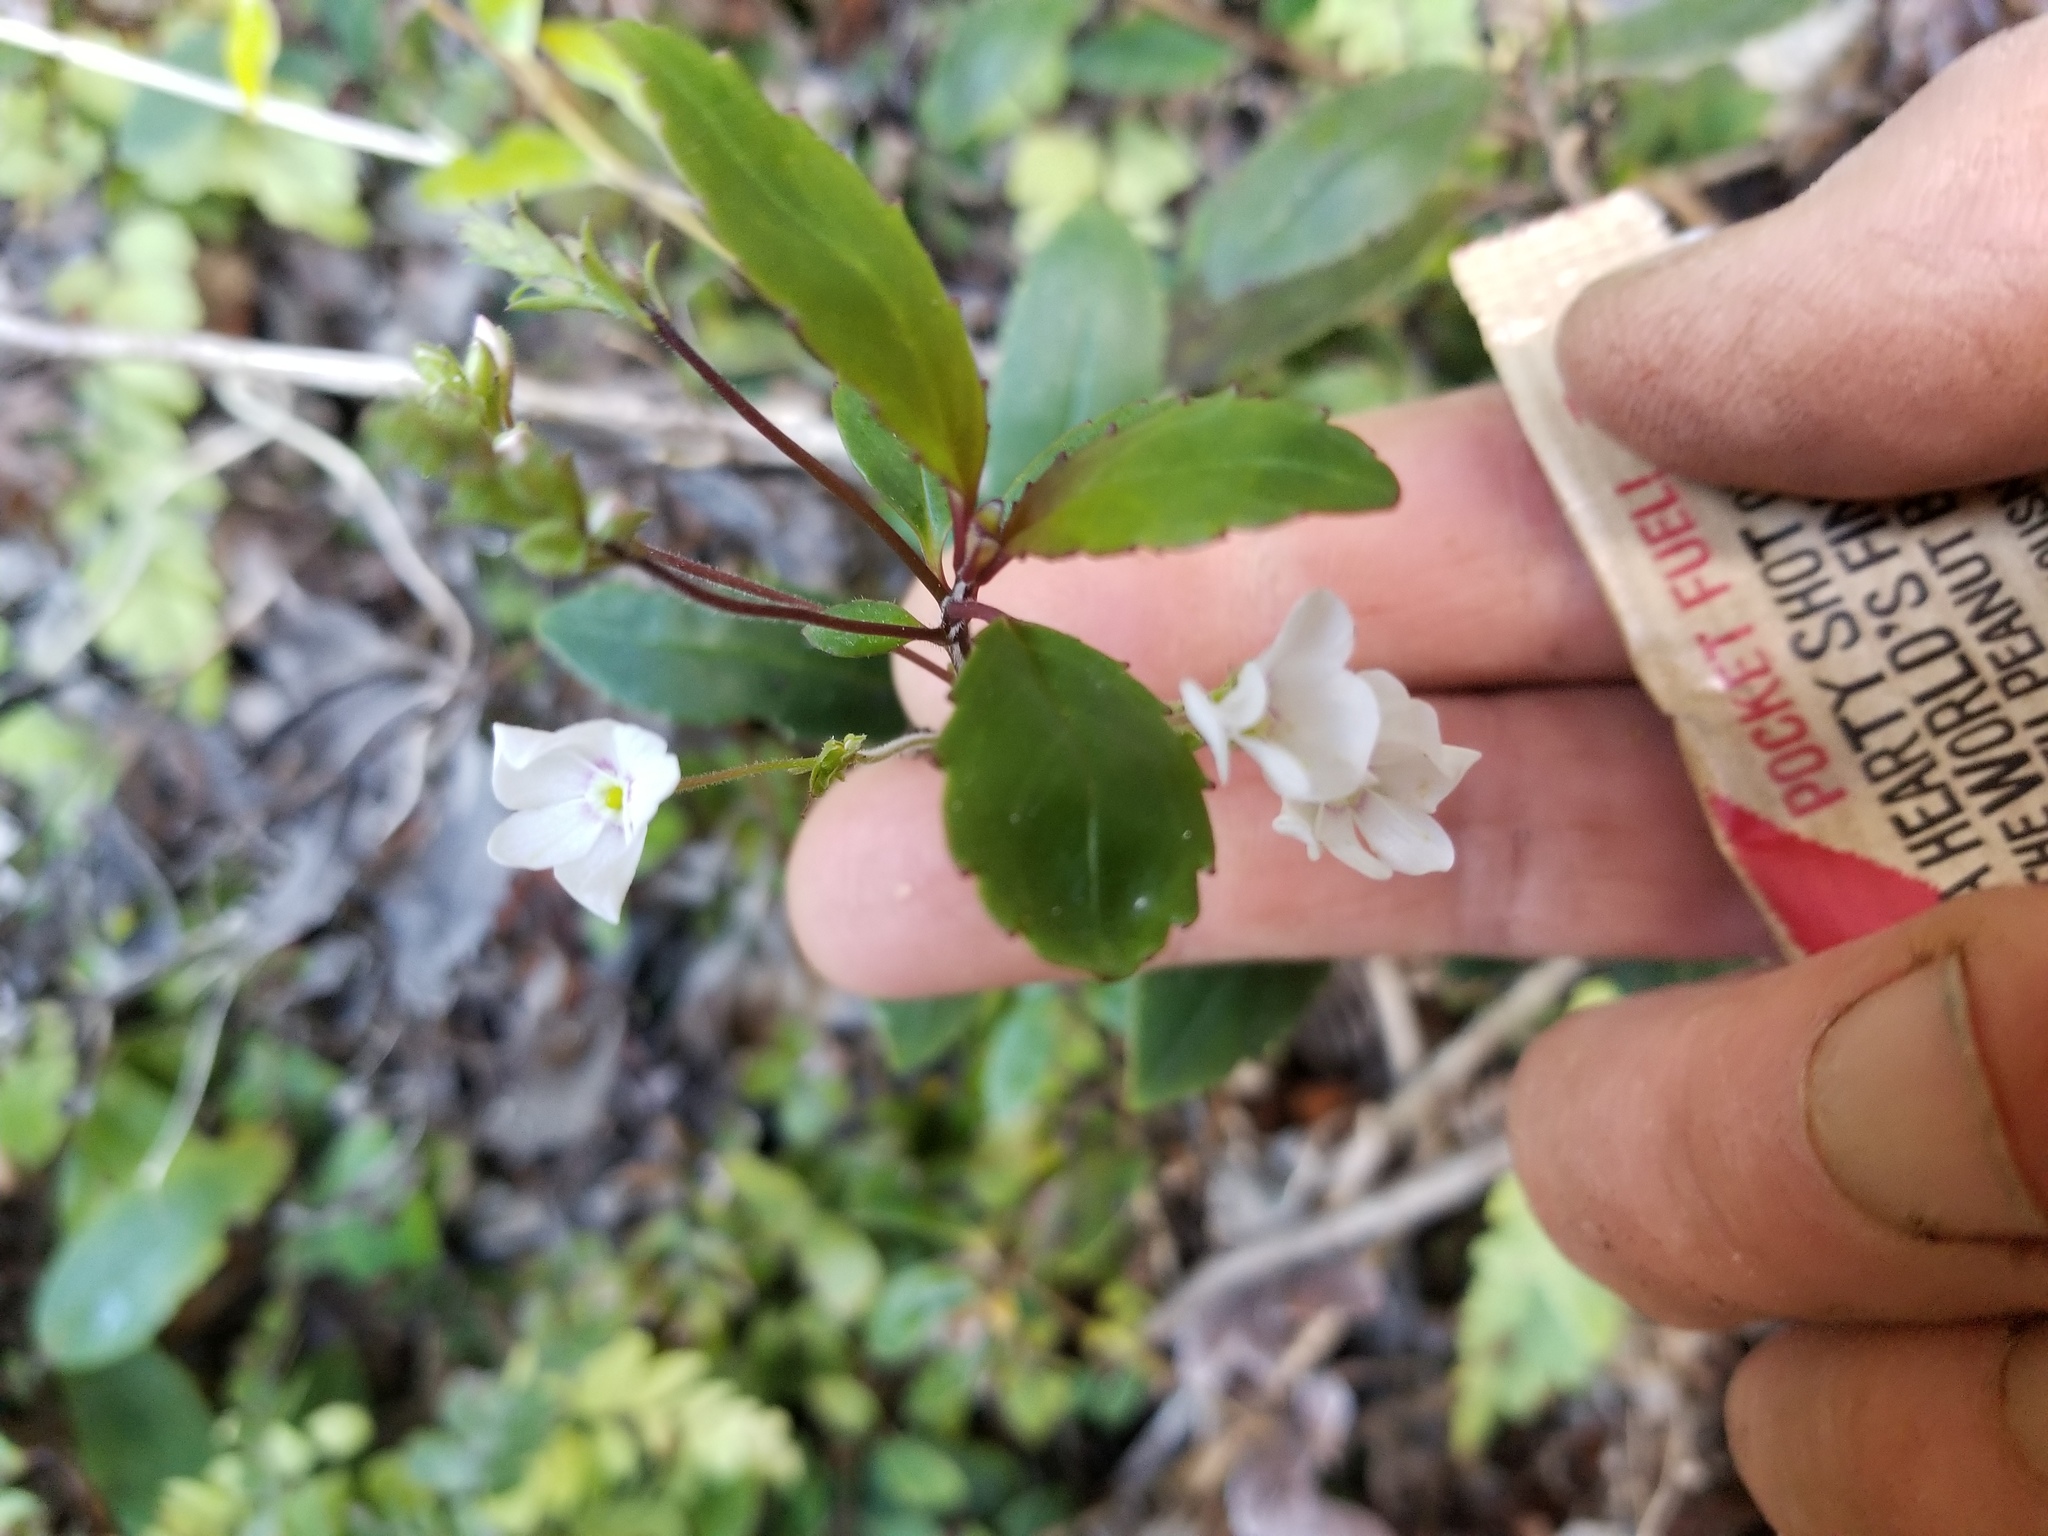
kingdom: Plantae
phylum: Tracheophyta
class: Magnoliopsida
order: Lamiales
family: Plantaginaceae
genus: Veronica
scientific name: Veronica senex
